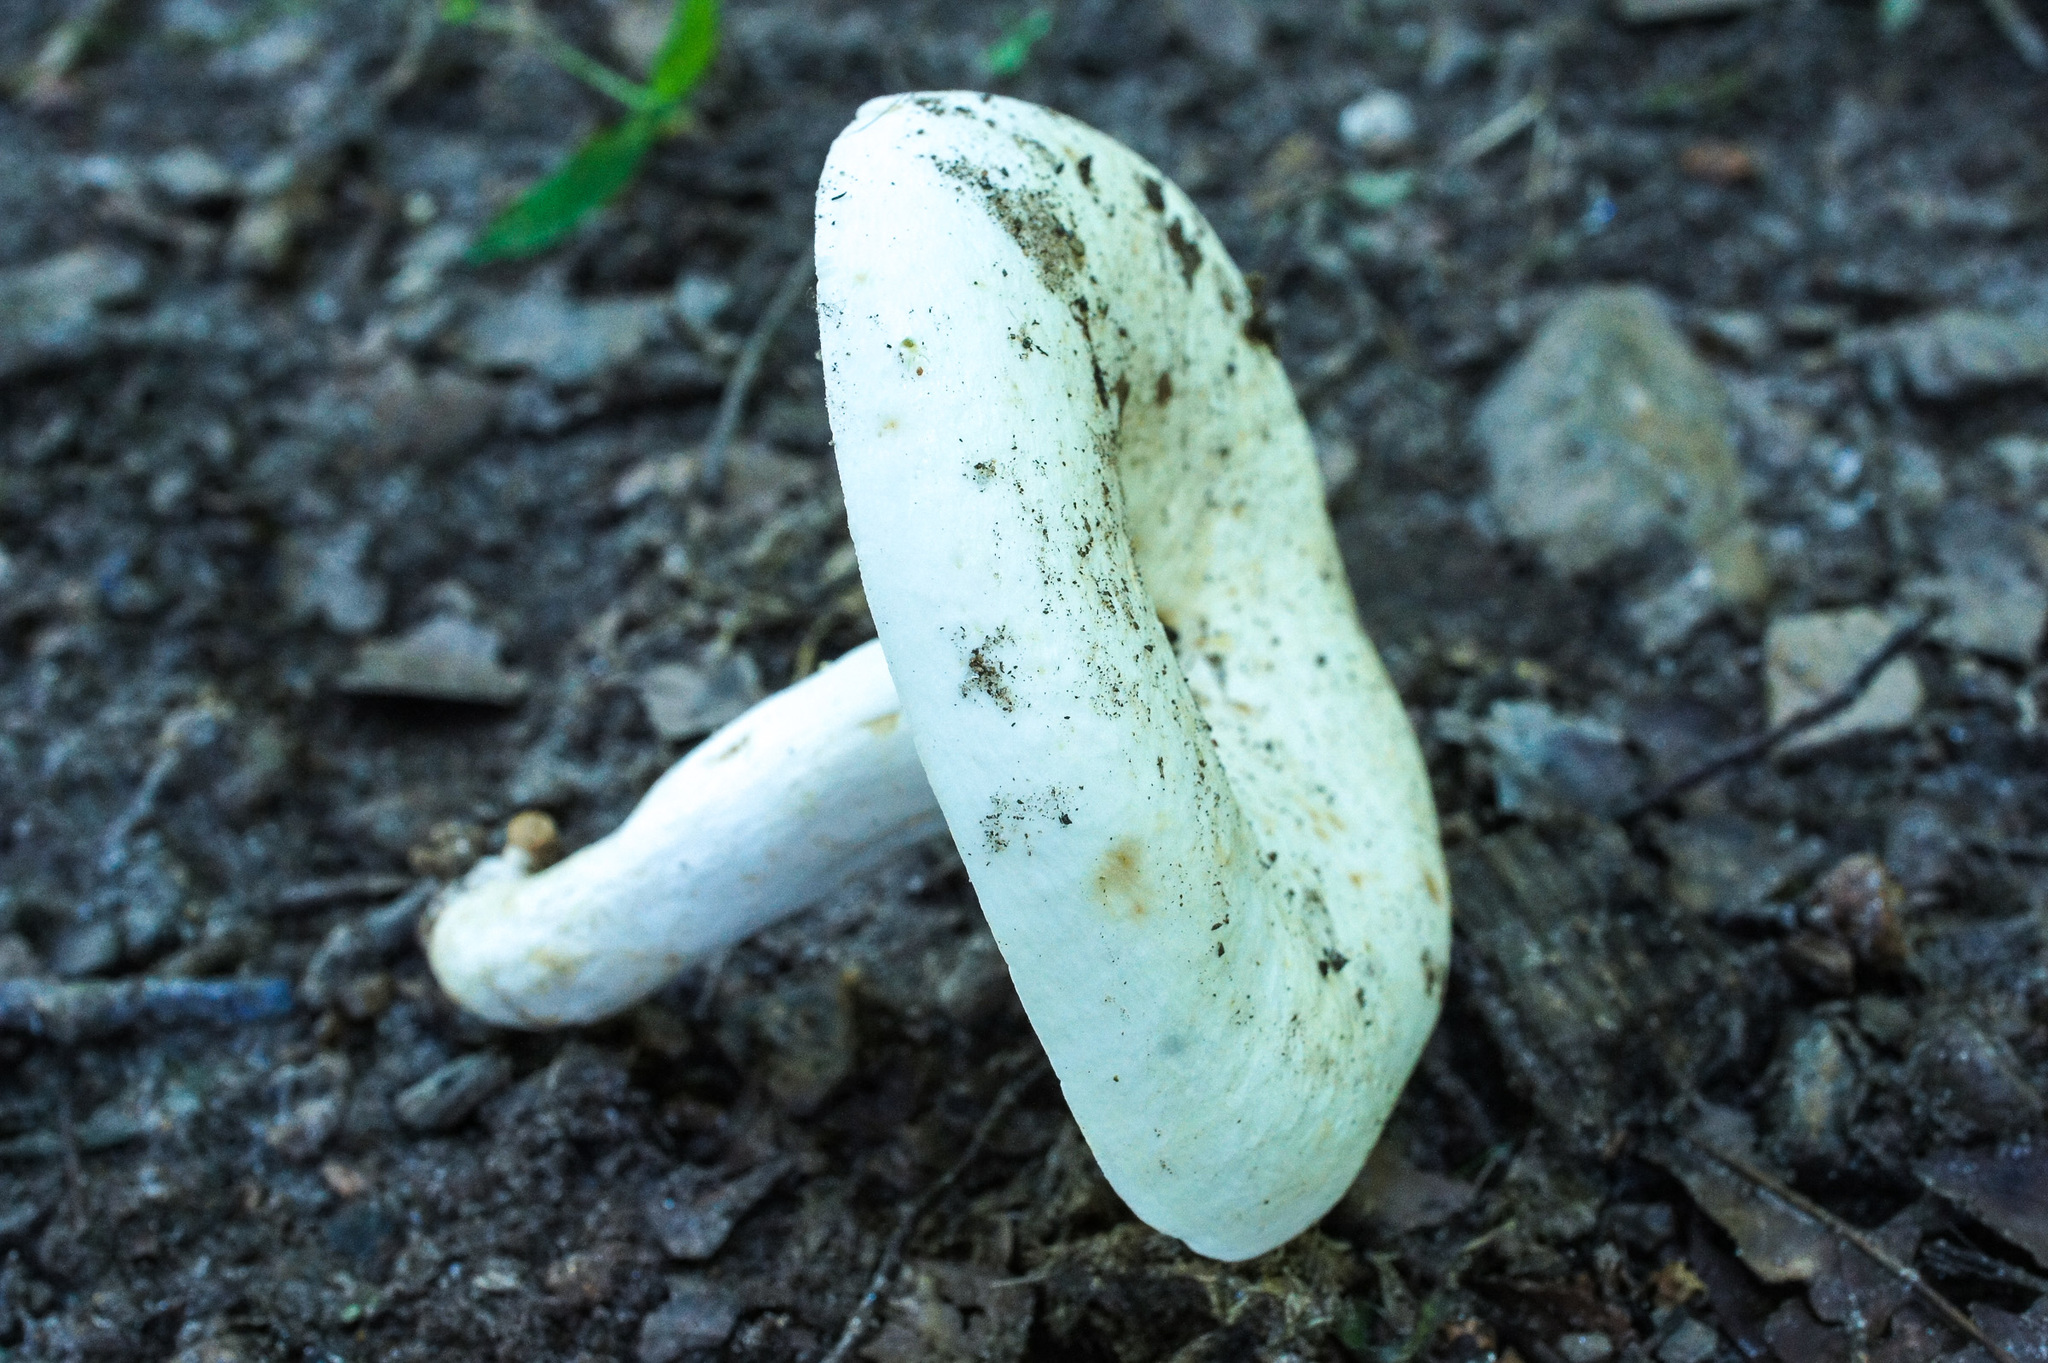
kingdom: Fungi
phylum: Basidiomycota
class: Agaricomycetes
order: Russulales
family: Russulaceae
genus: Lactifluus
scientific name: Lactifluus piperatus
